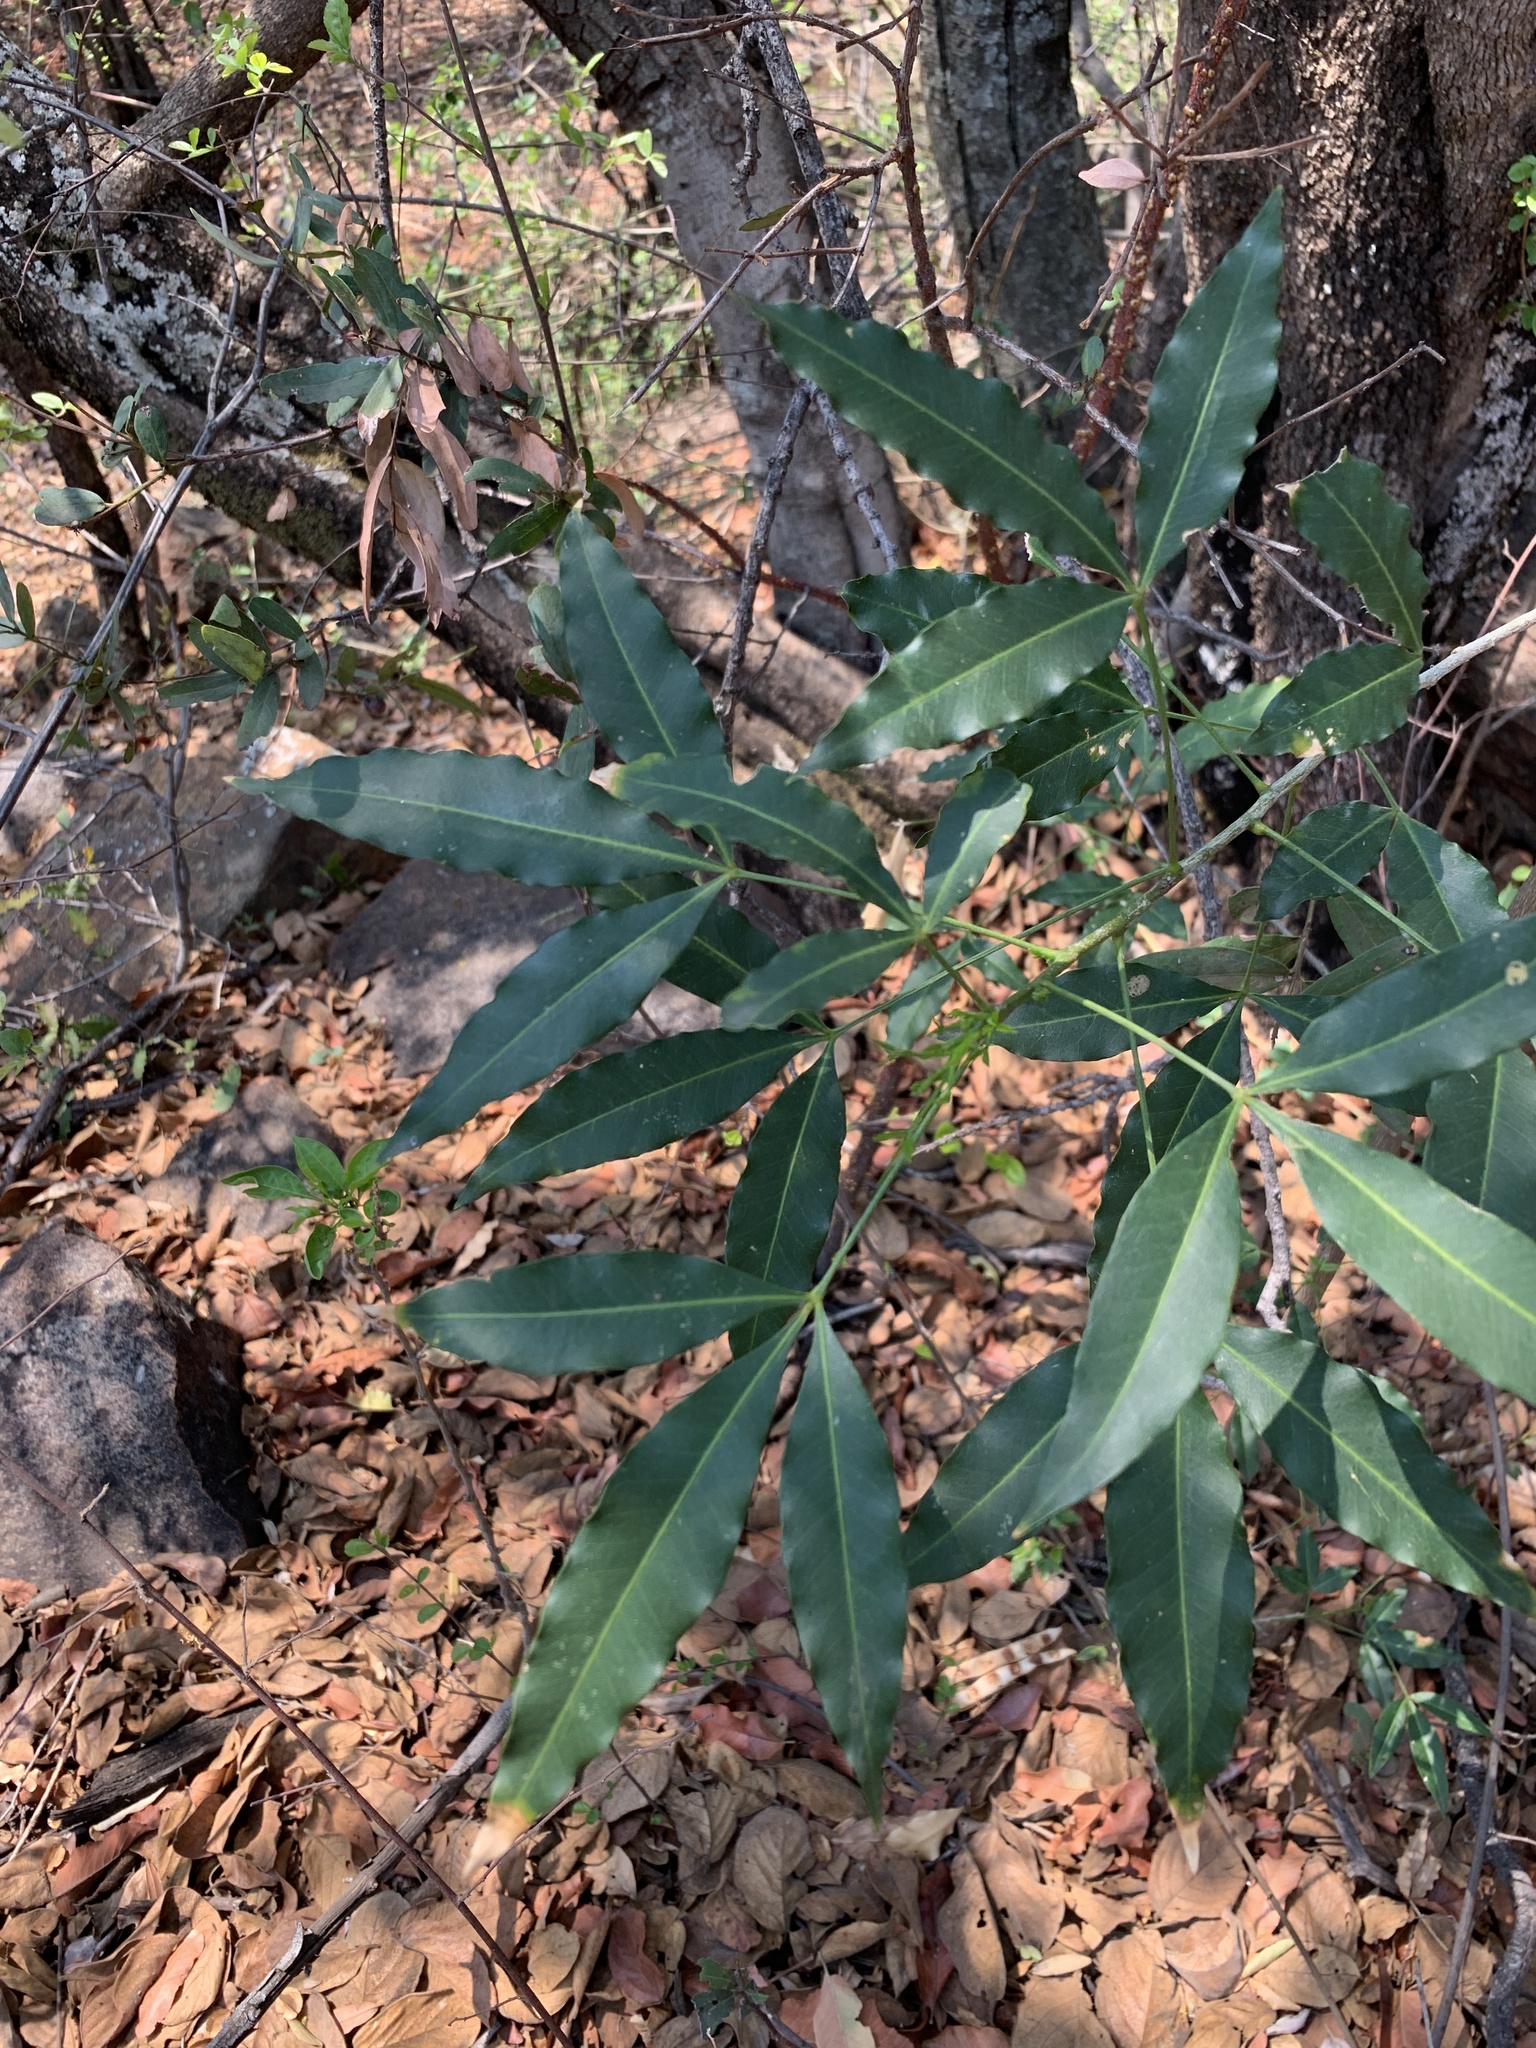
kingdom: Plantae
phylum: Tracheophyta
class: Magnoliopsida
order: Sapindales
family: Rutaceae
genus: Vepris
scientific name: Vepris lanceolata
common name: White ironwood
